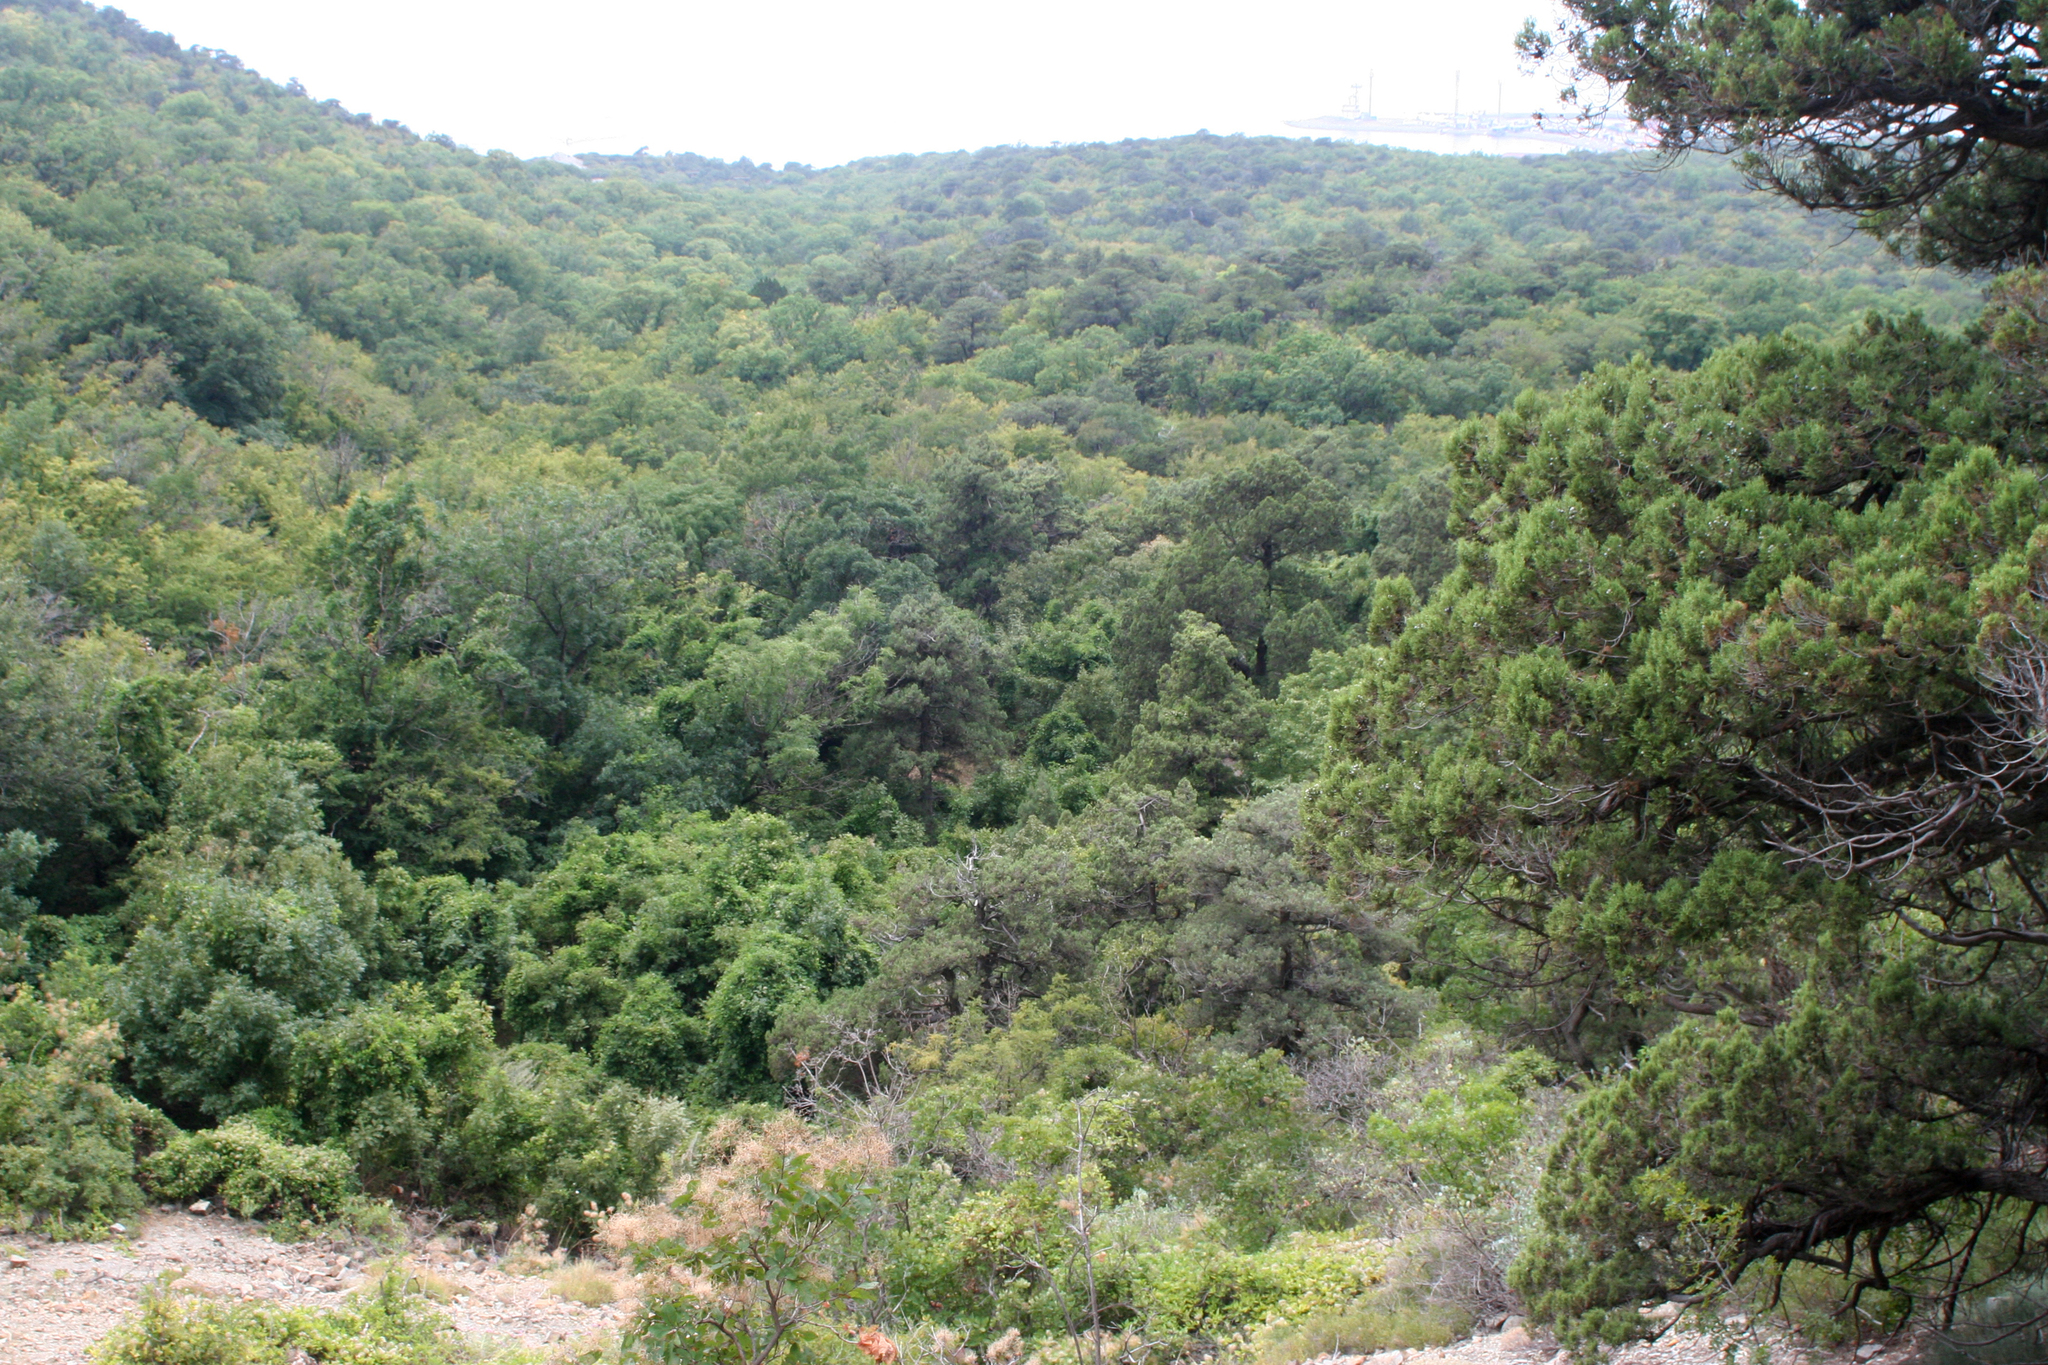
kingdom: Plantae
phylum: Tracheophyta
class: Pinopsida
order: Pinales
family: Cupressaceae
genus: Juniperus
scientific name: Juniperus excelsa
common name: Crimean juniper
